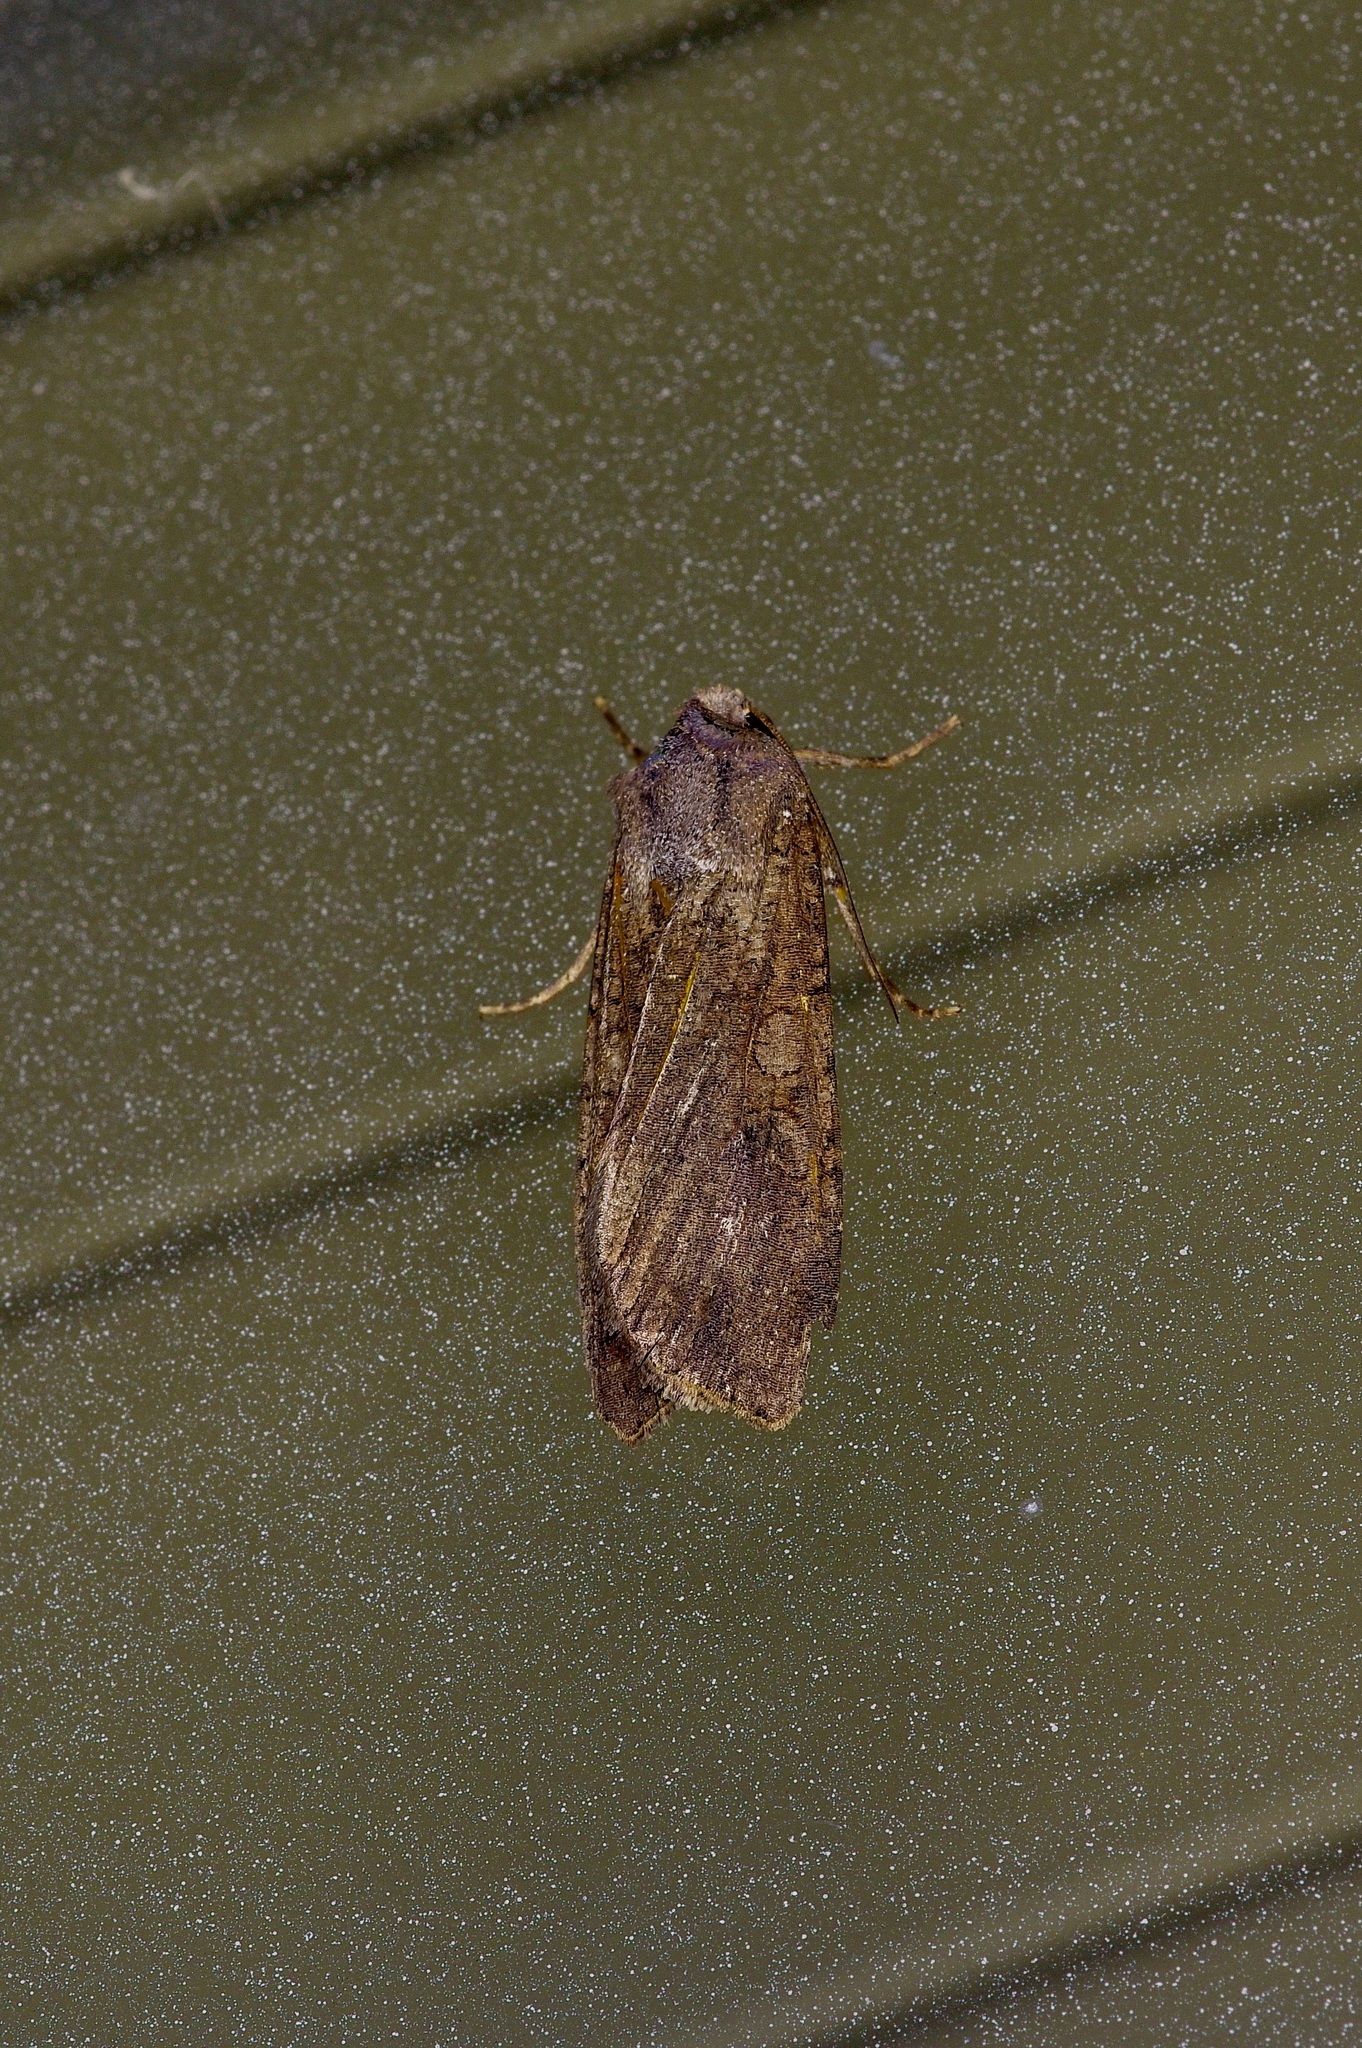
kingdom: Animalia
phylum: Arthropoda
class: Insecta
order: Lepidoptera
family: Noctuidae
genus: Peridroma
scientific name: Peridroma saucia
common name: Pearly underwing
